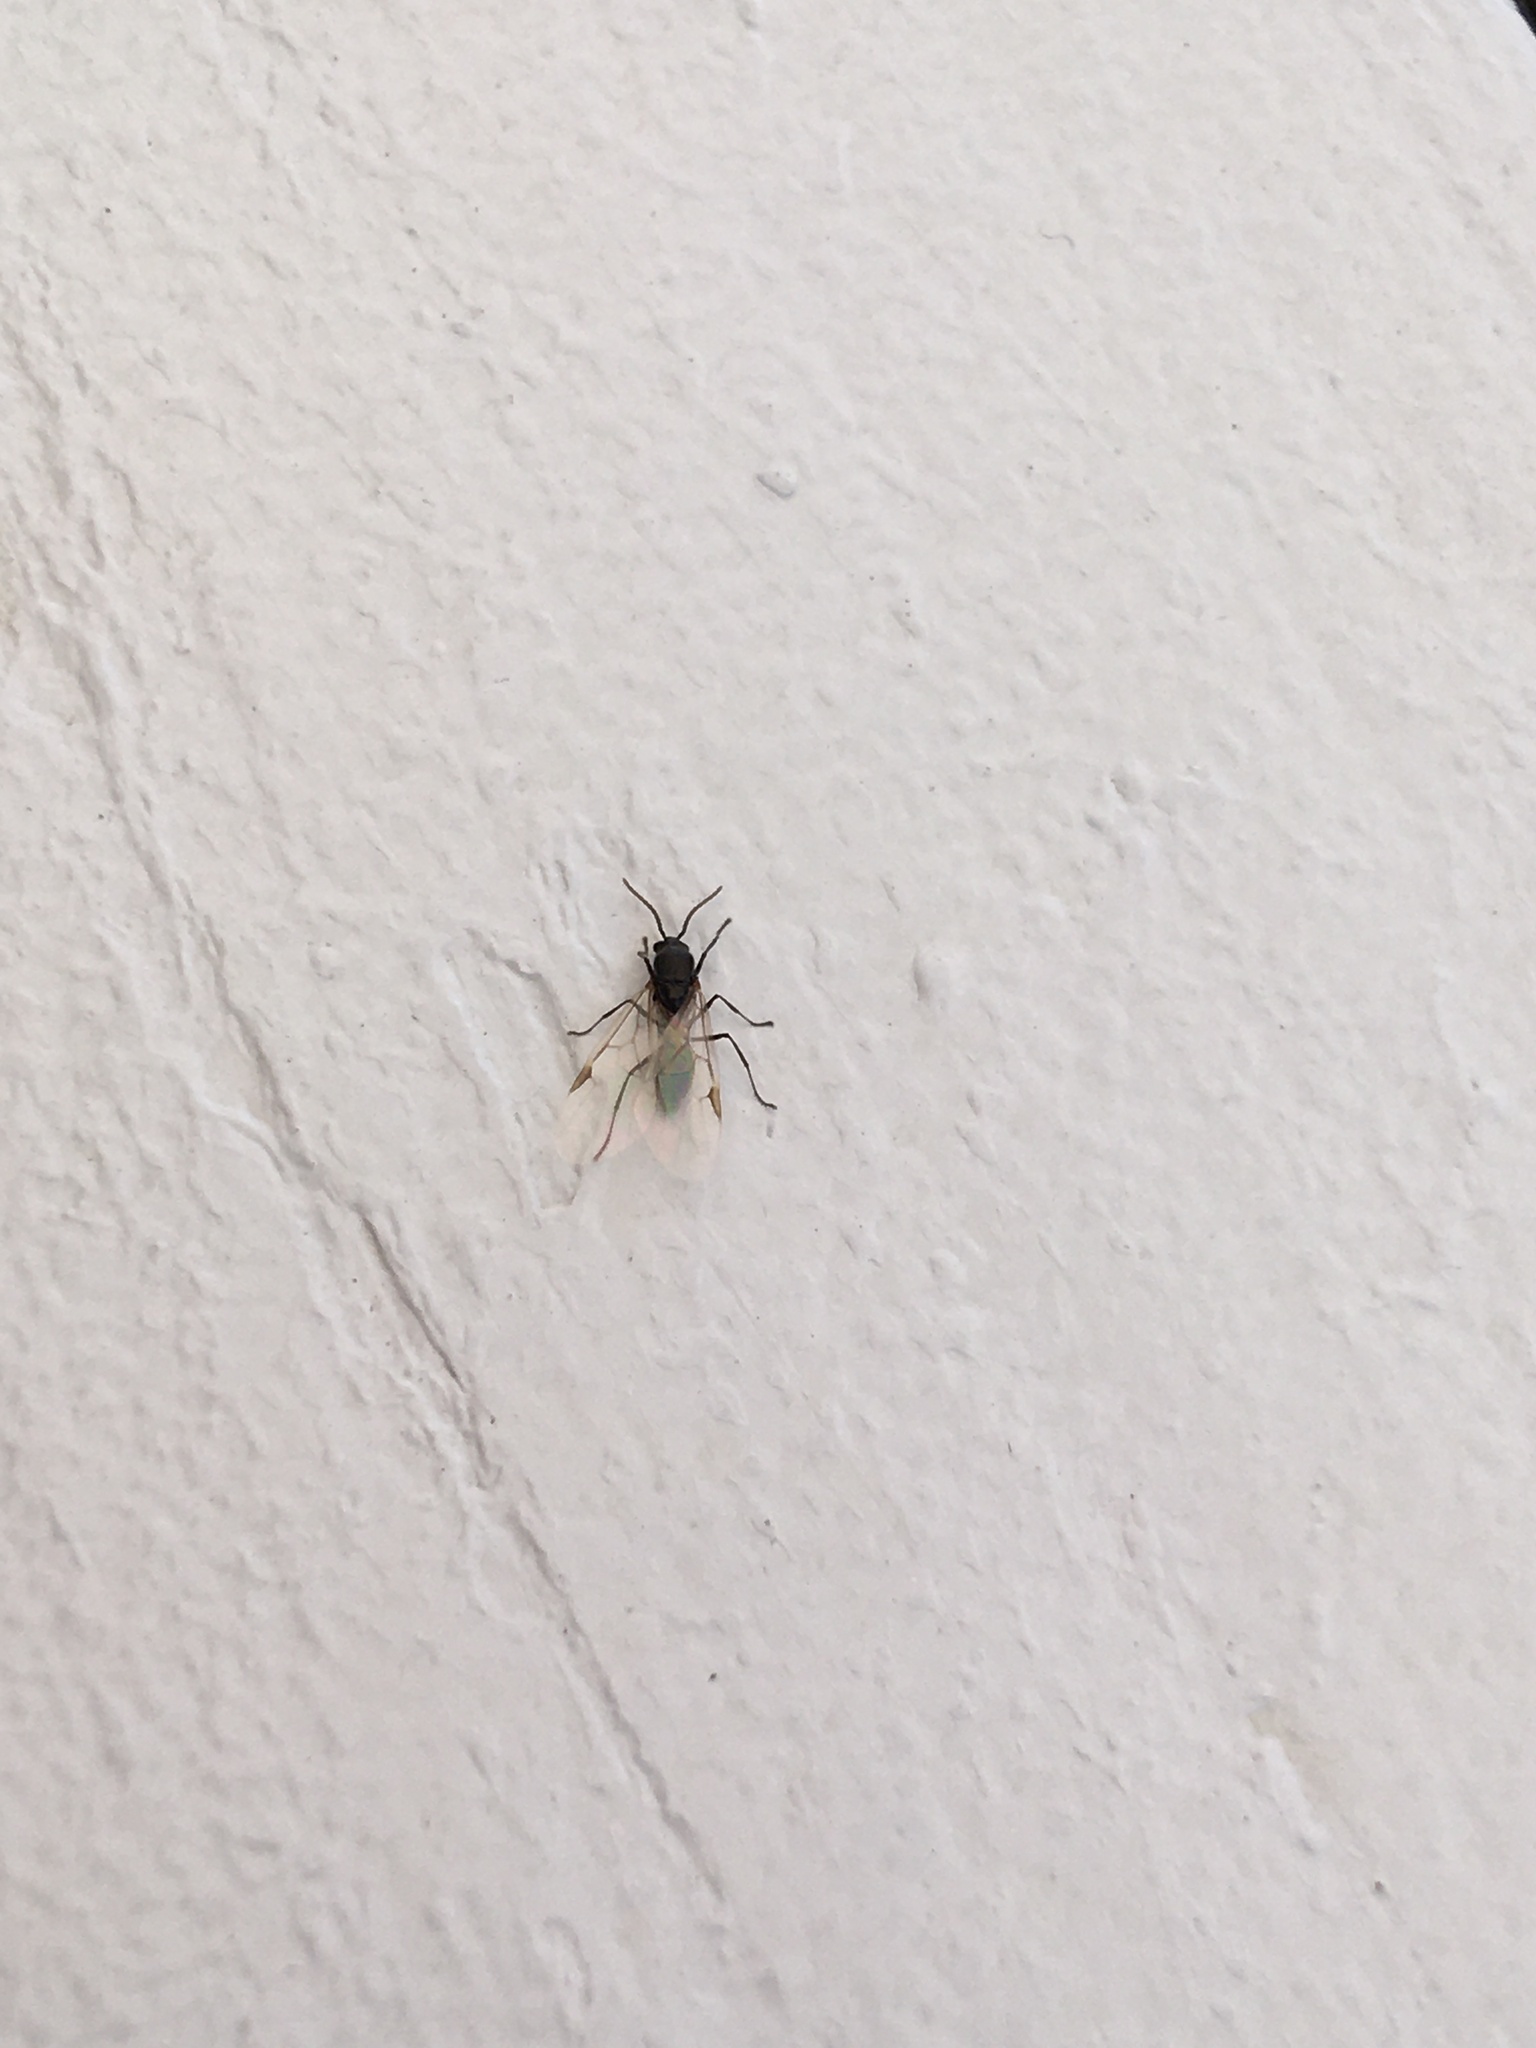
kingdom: Animalia
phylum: Arthropoda
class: Insecta
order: Hymenoptera
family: Formicidae
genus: Crematogaster
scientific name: Crematogaster peringueyi
